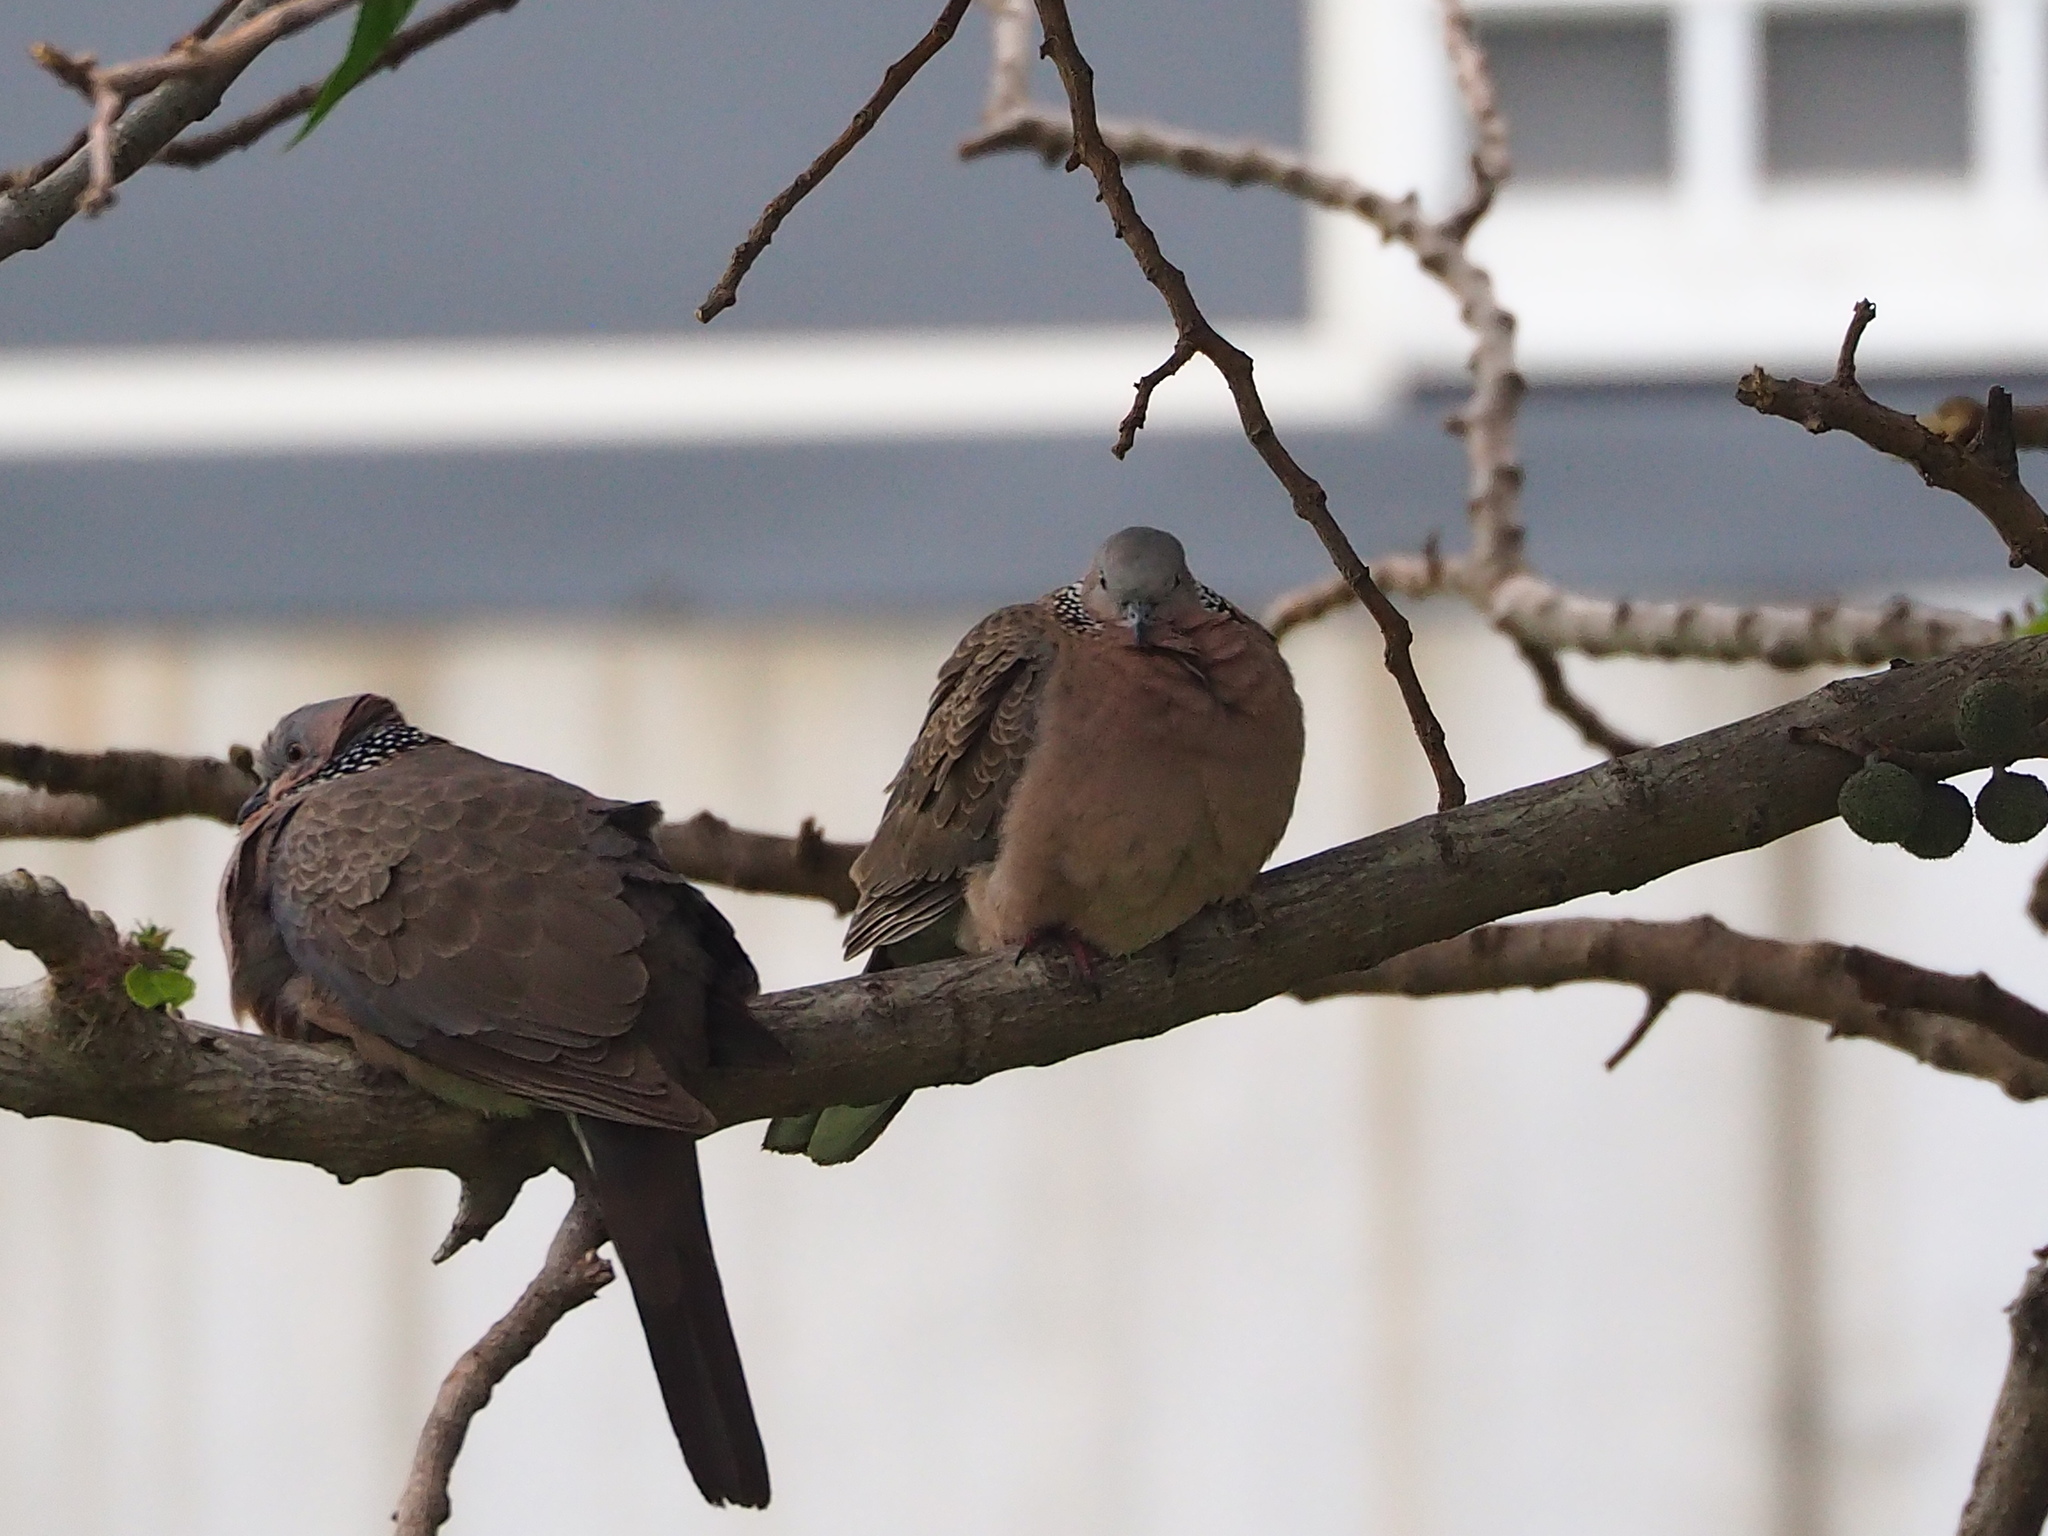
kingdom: Animalia
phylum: Chordata
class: Aves
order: Columbiformes
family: Columbidae
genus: Spilopelia
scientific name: Spilopelia chinensis
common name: Spotted dove
